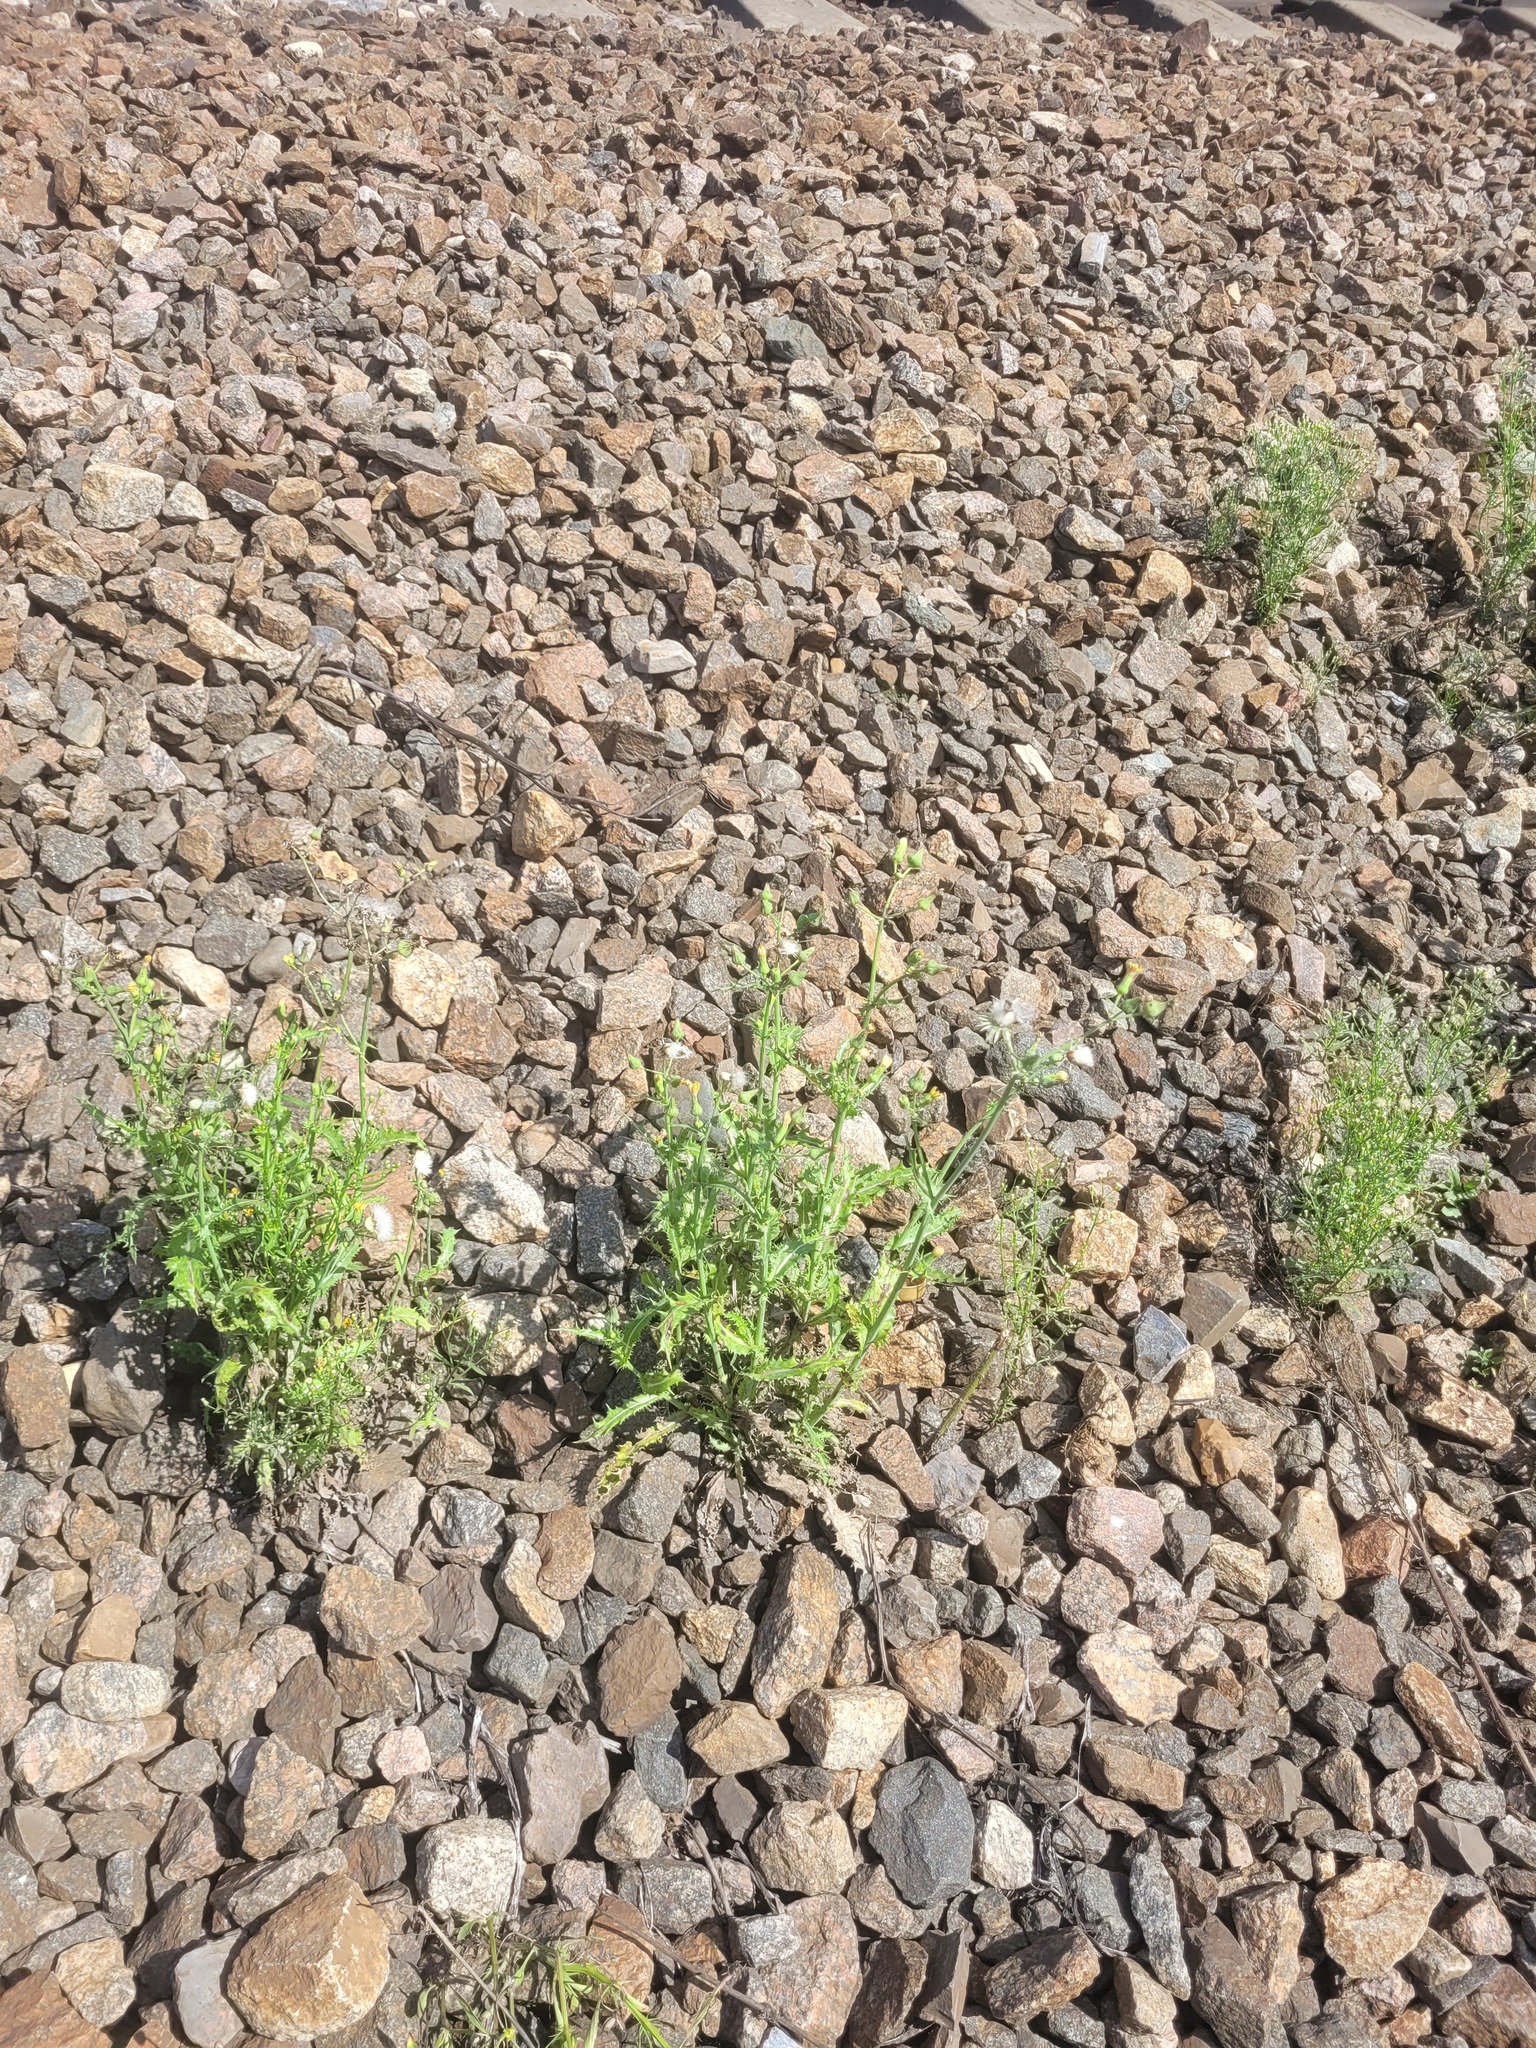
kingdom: Plantae
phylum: Tracheophyta
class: Magnoliopsida
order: Asterales
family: Asteraceae
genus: Sonchus
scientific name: Sonchus asper
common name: Prickly sow-thistle
